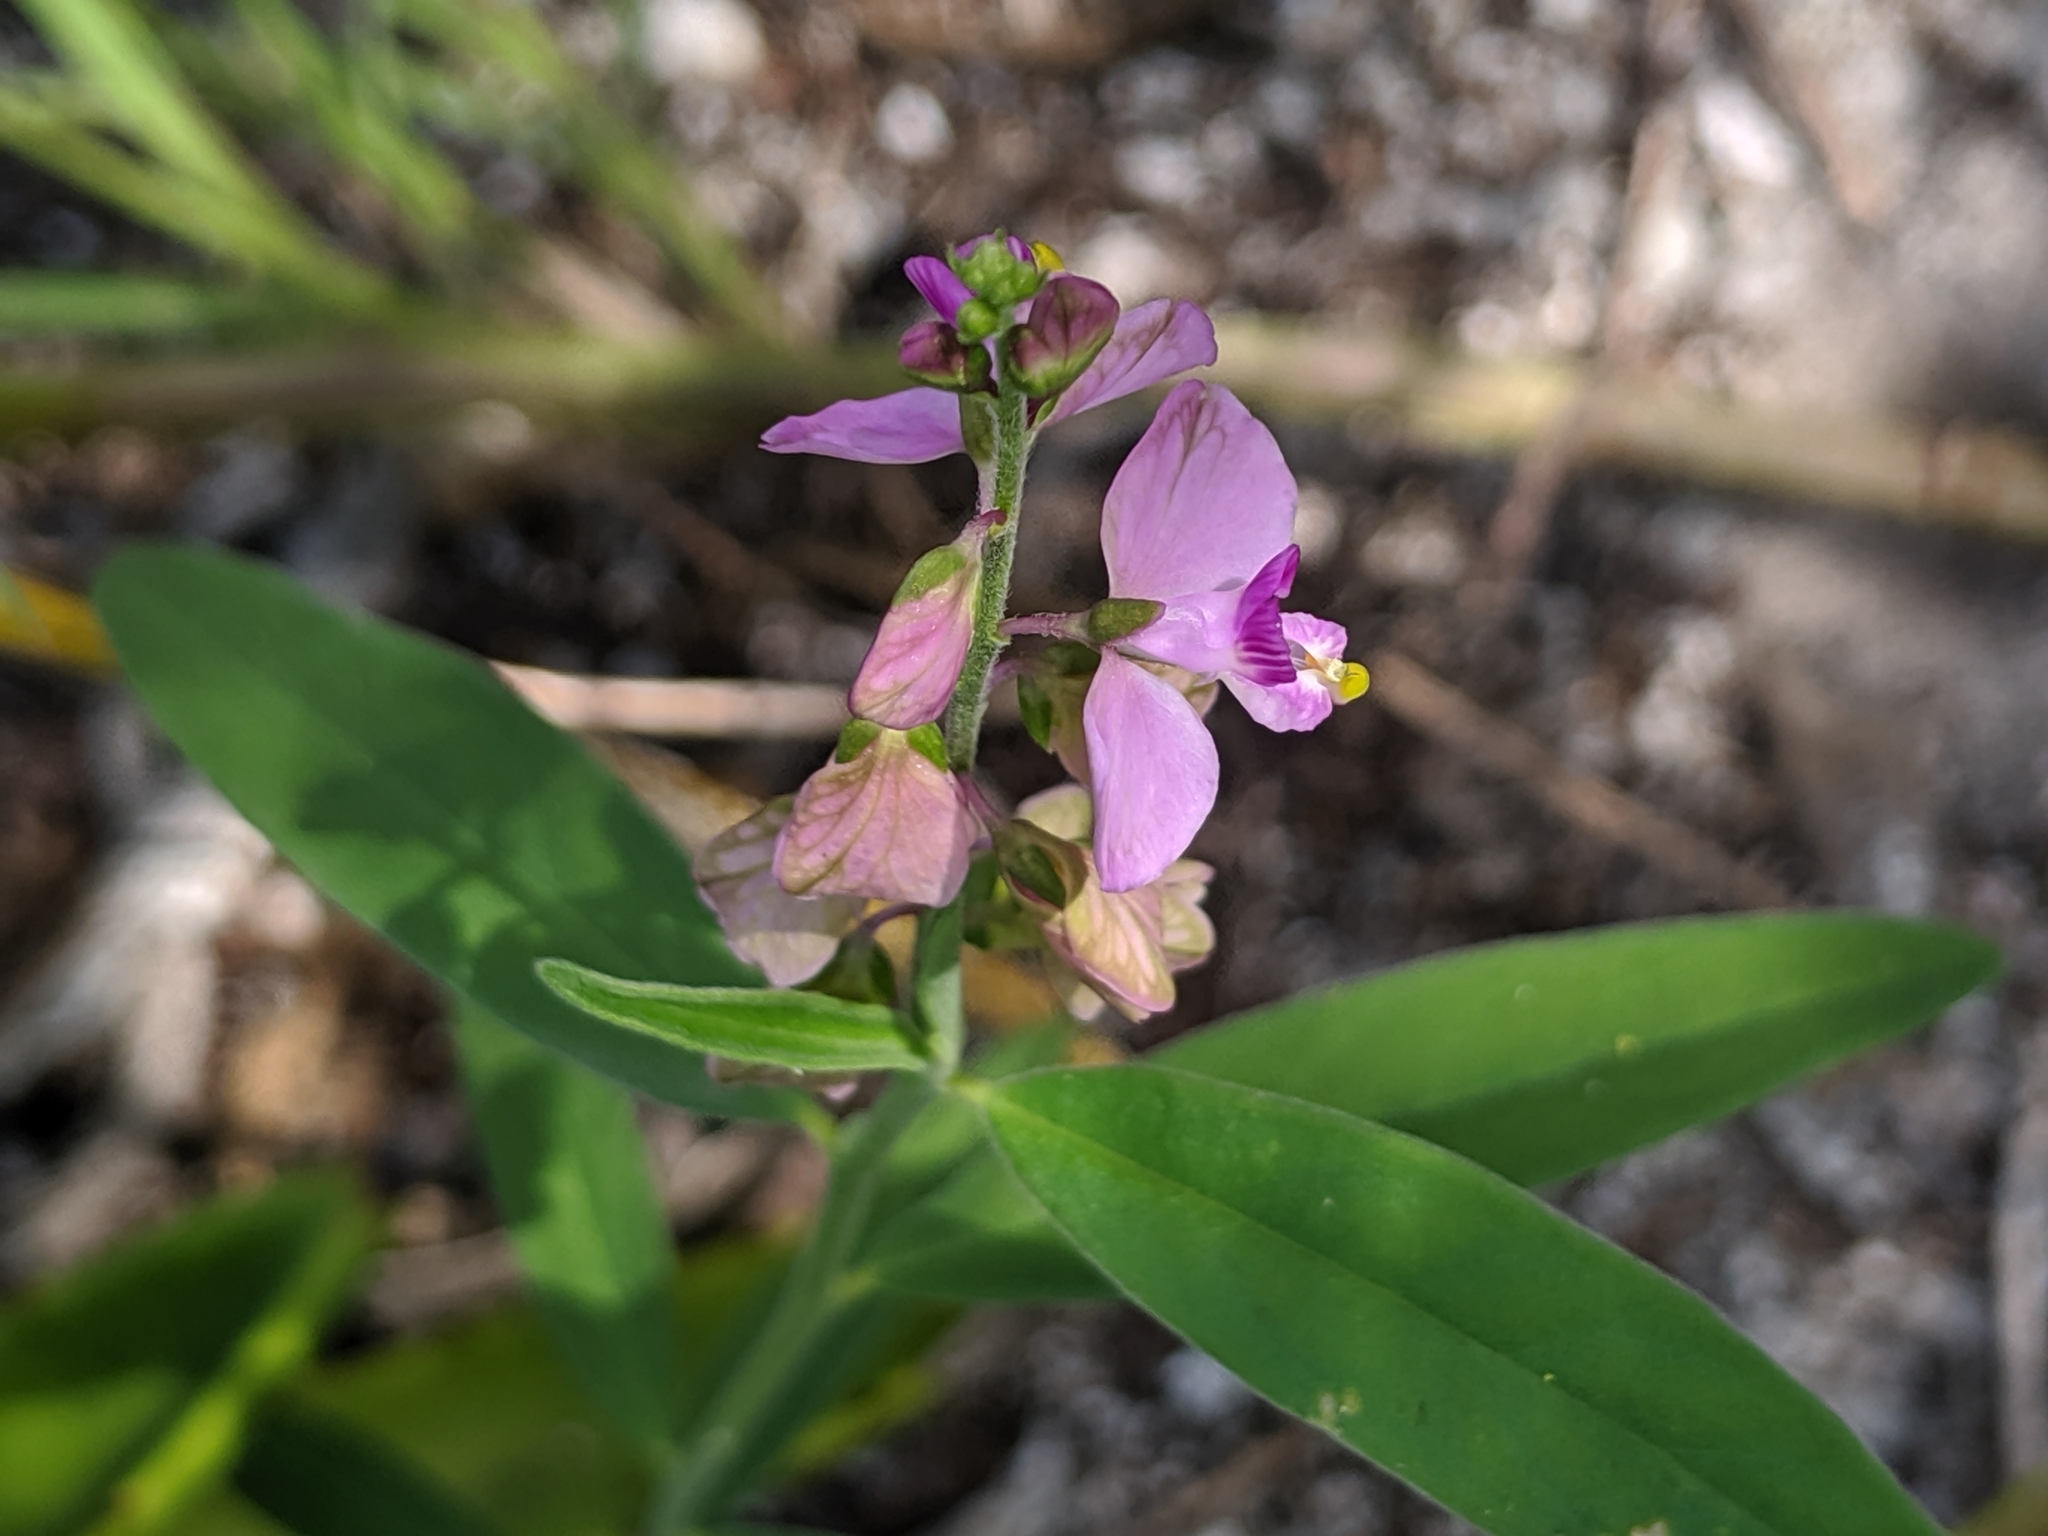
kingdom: Plantae
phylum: Tracheophyta
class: Magnoliopsida
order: Fabales
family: Polygalaceae
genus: Asemeia
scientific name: Asemeia grandiflora
